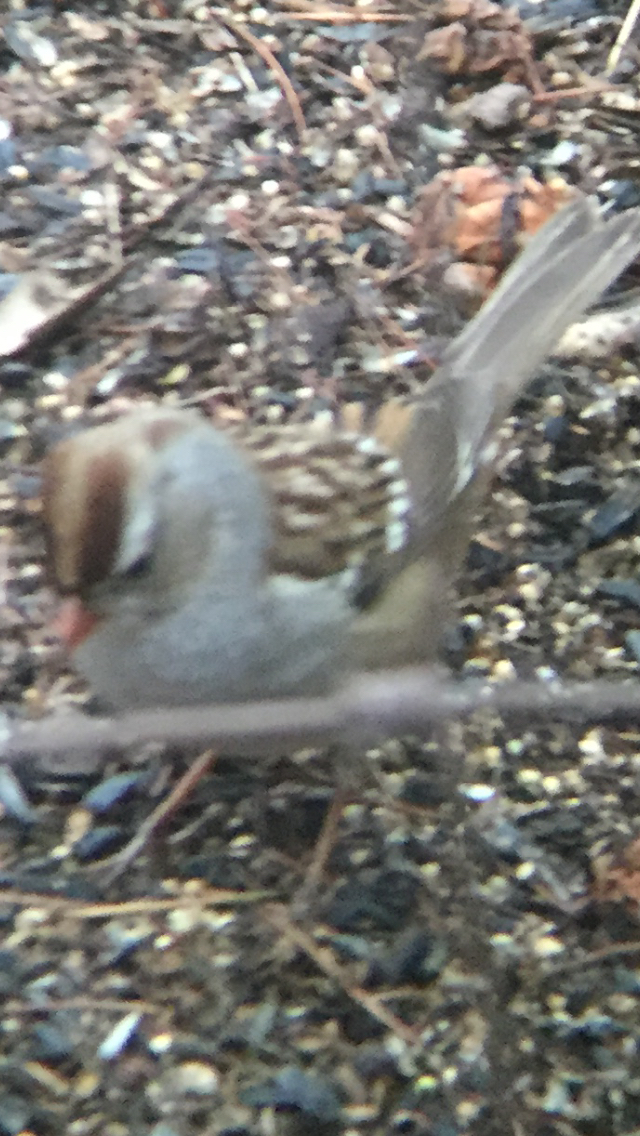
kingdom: Animalia
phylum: Chordata
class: Aves
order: Passeriformes
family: Passerellidae
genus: Zonotrichia
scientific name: Zonotrichia leucophrys
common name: White-crowned sparrow
